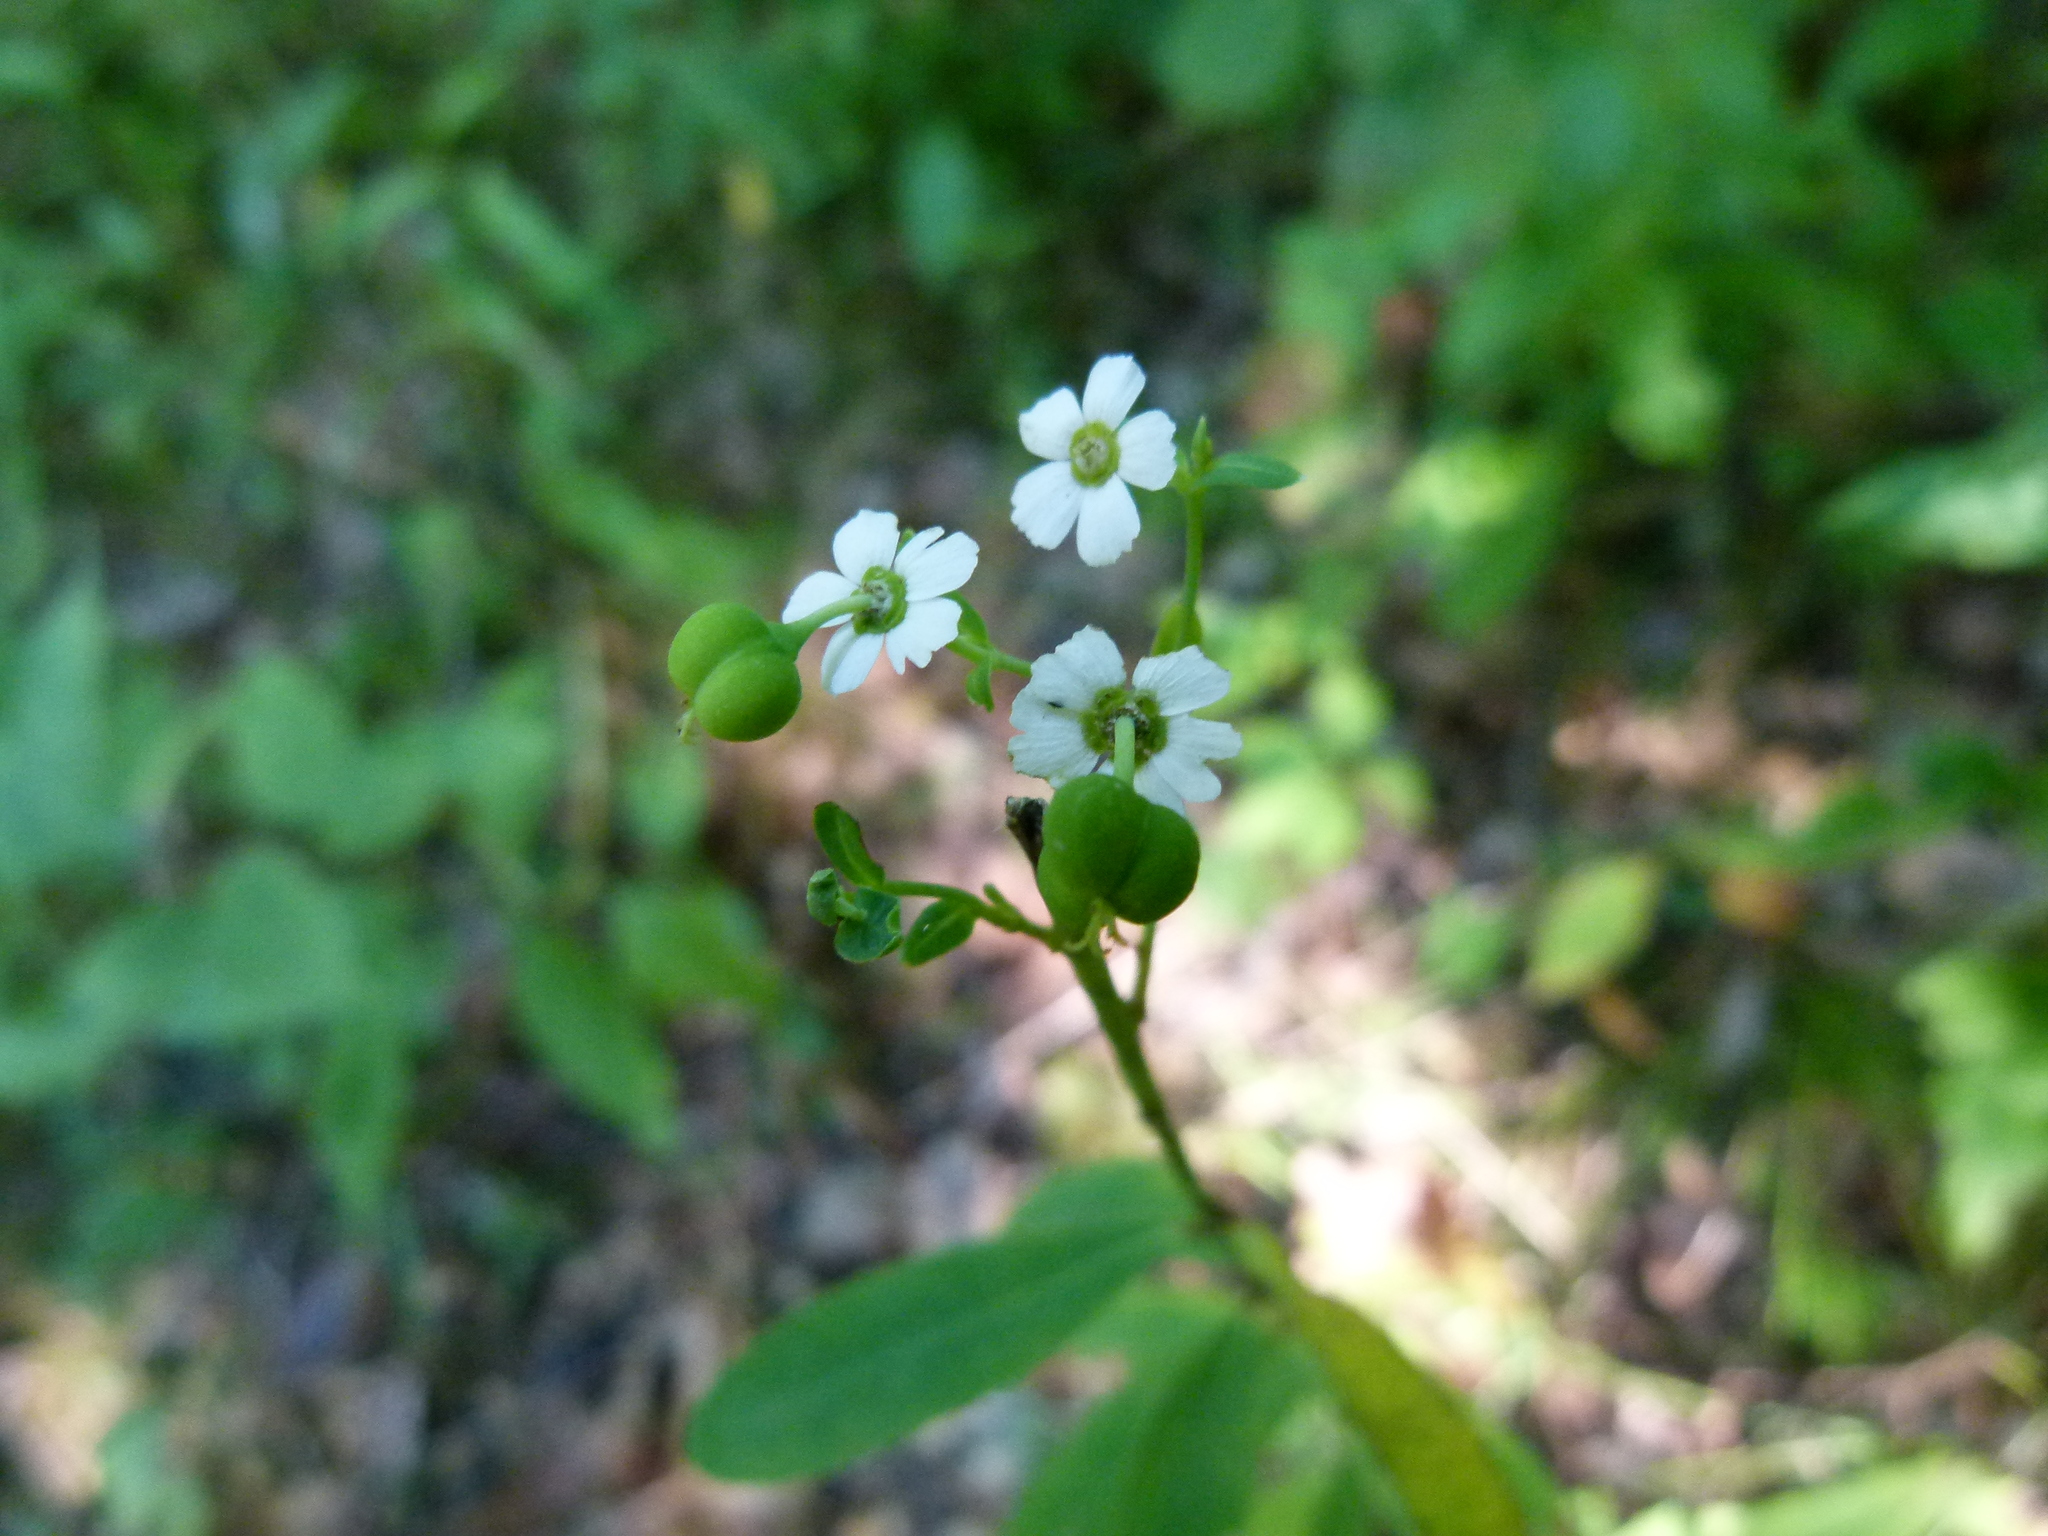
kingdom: Plantae
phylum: Tracheophyta
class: Magnoliopsida
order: Malpighiales
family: Euphorbiaceae
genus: Euphorbia
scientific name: Euphorbia corollata
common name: Flowering spurge
